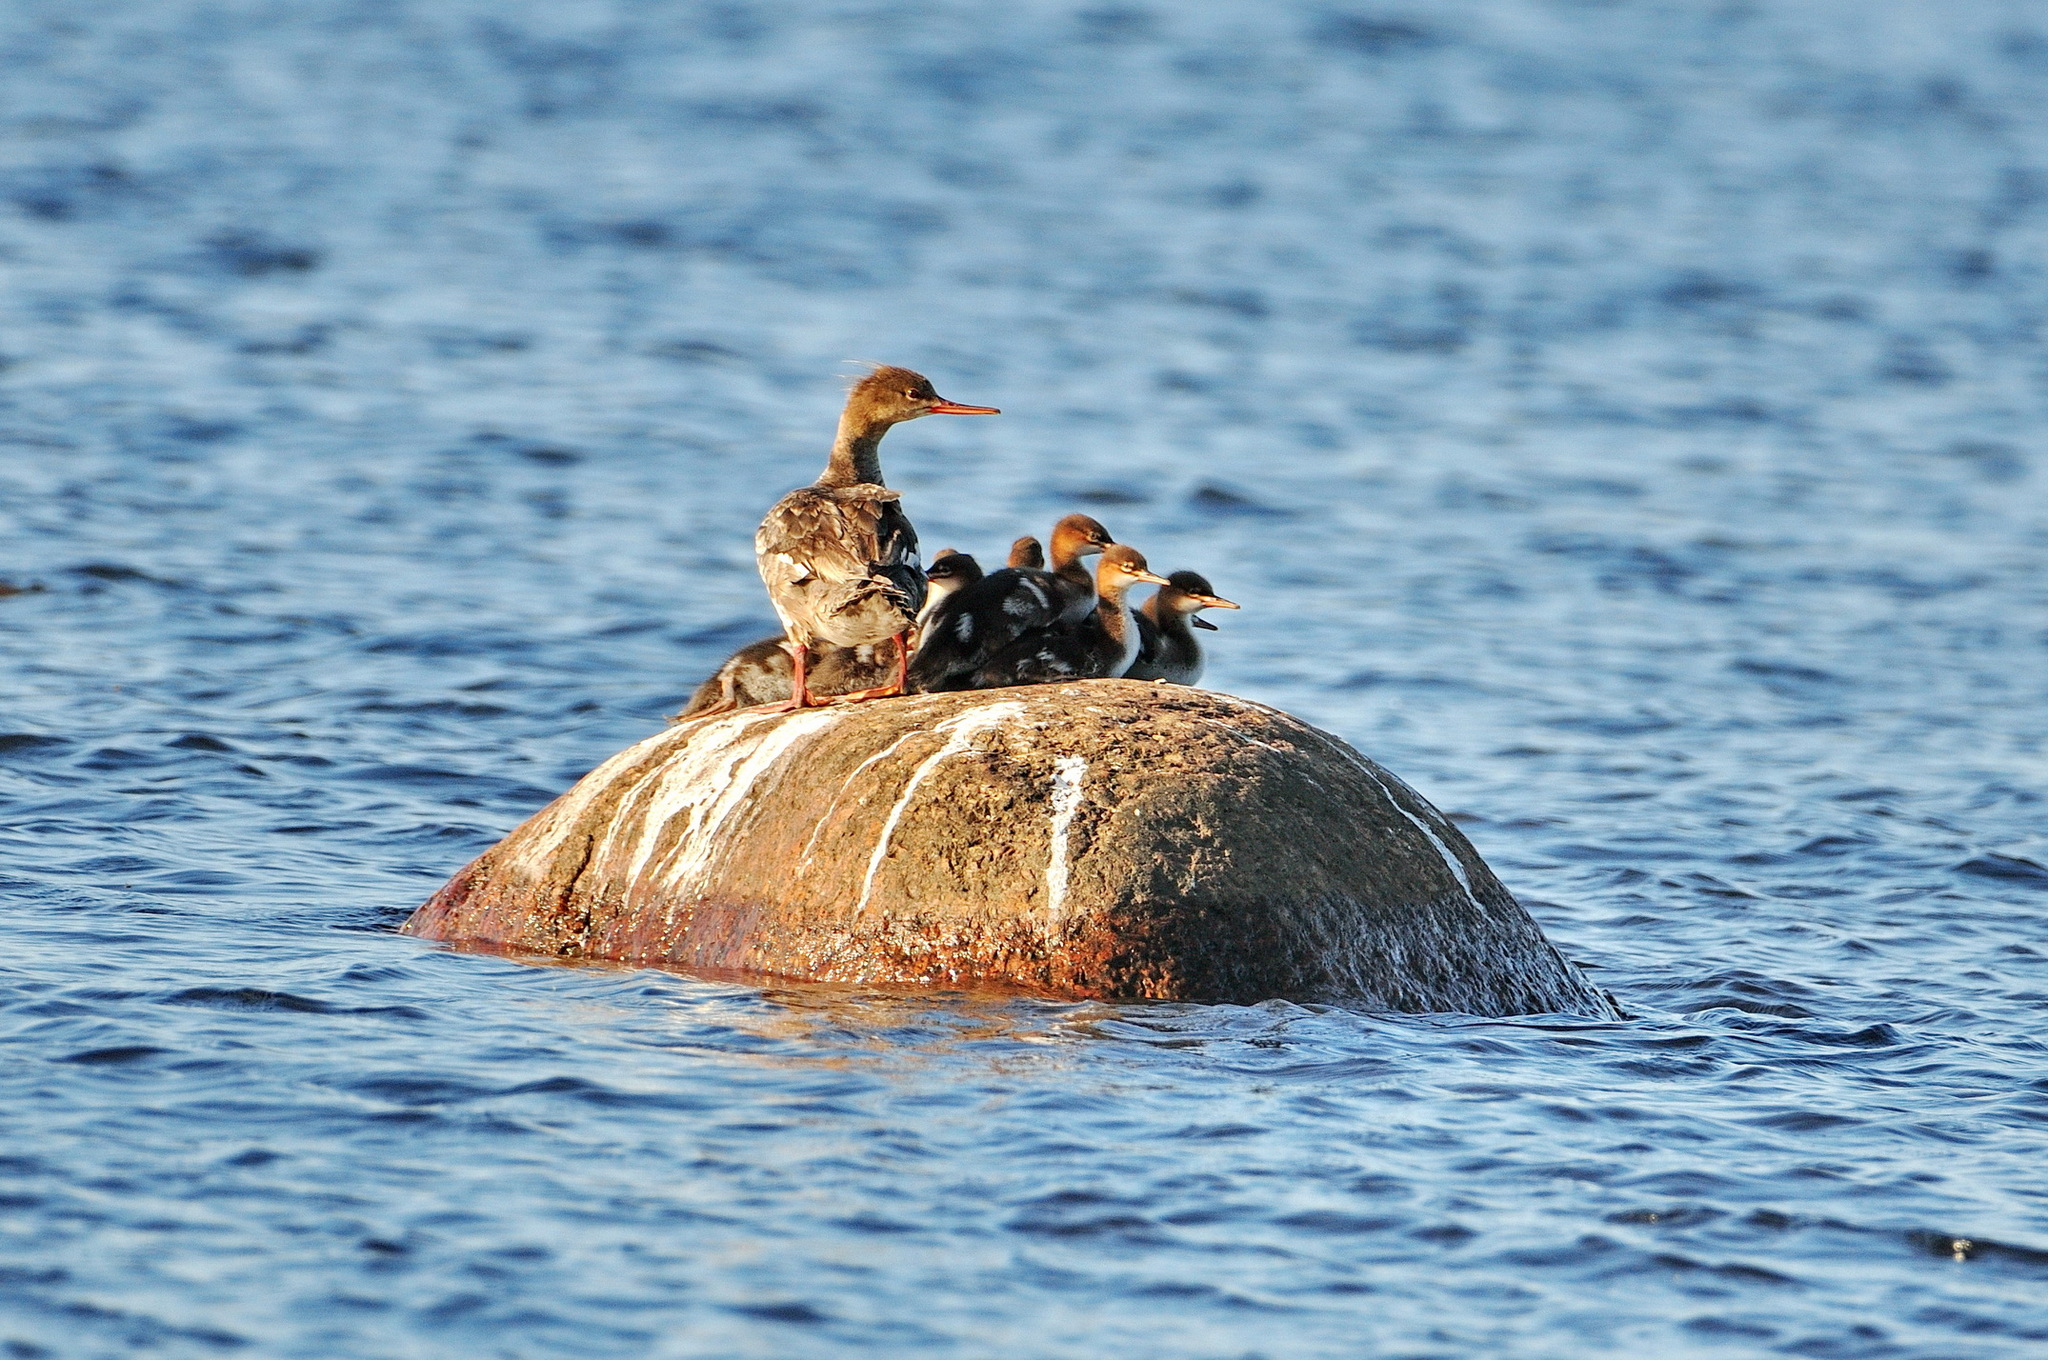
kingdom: Animalia
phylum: Chordata
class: Aves
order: Anseriformes
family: Anatidae
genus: Mergus
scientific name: Mergus serrator
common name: Red-breasted merganser
